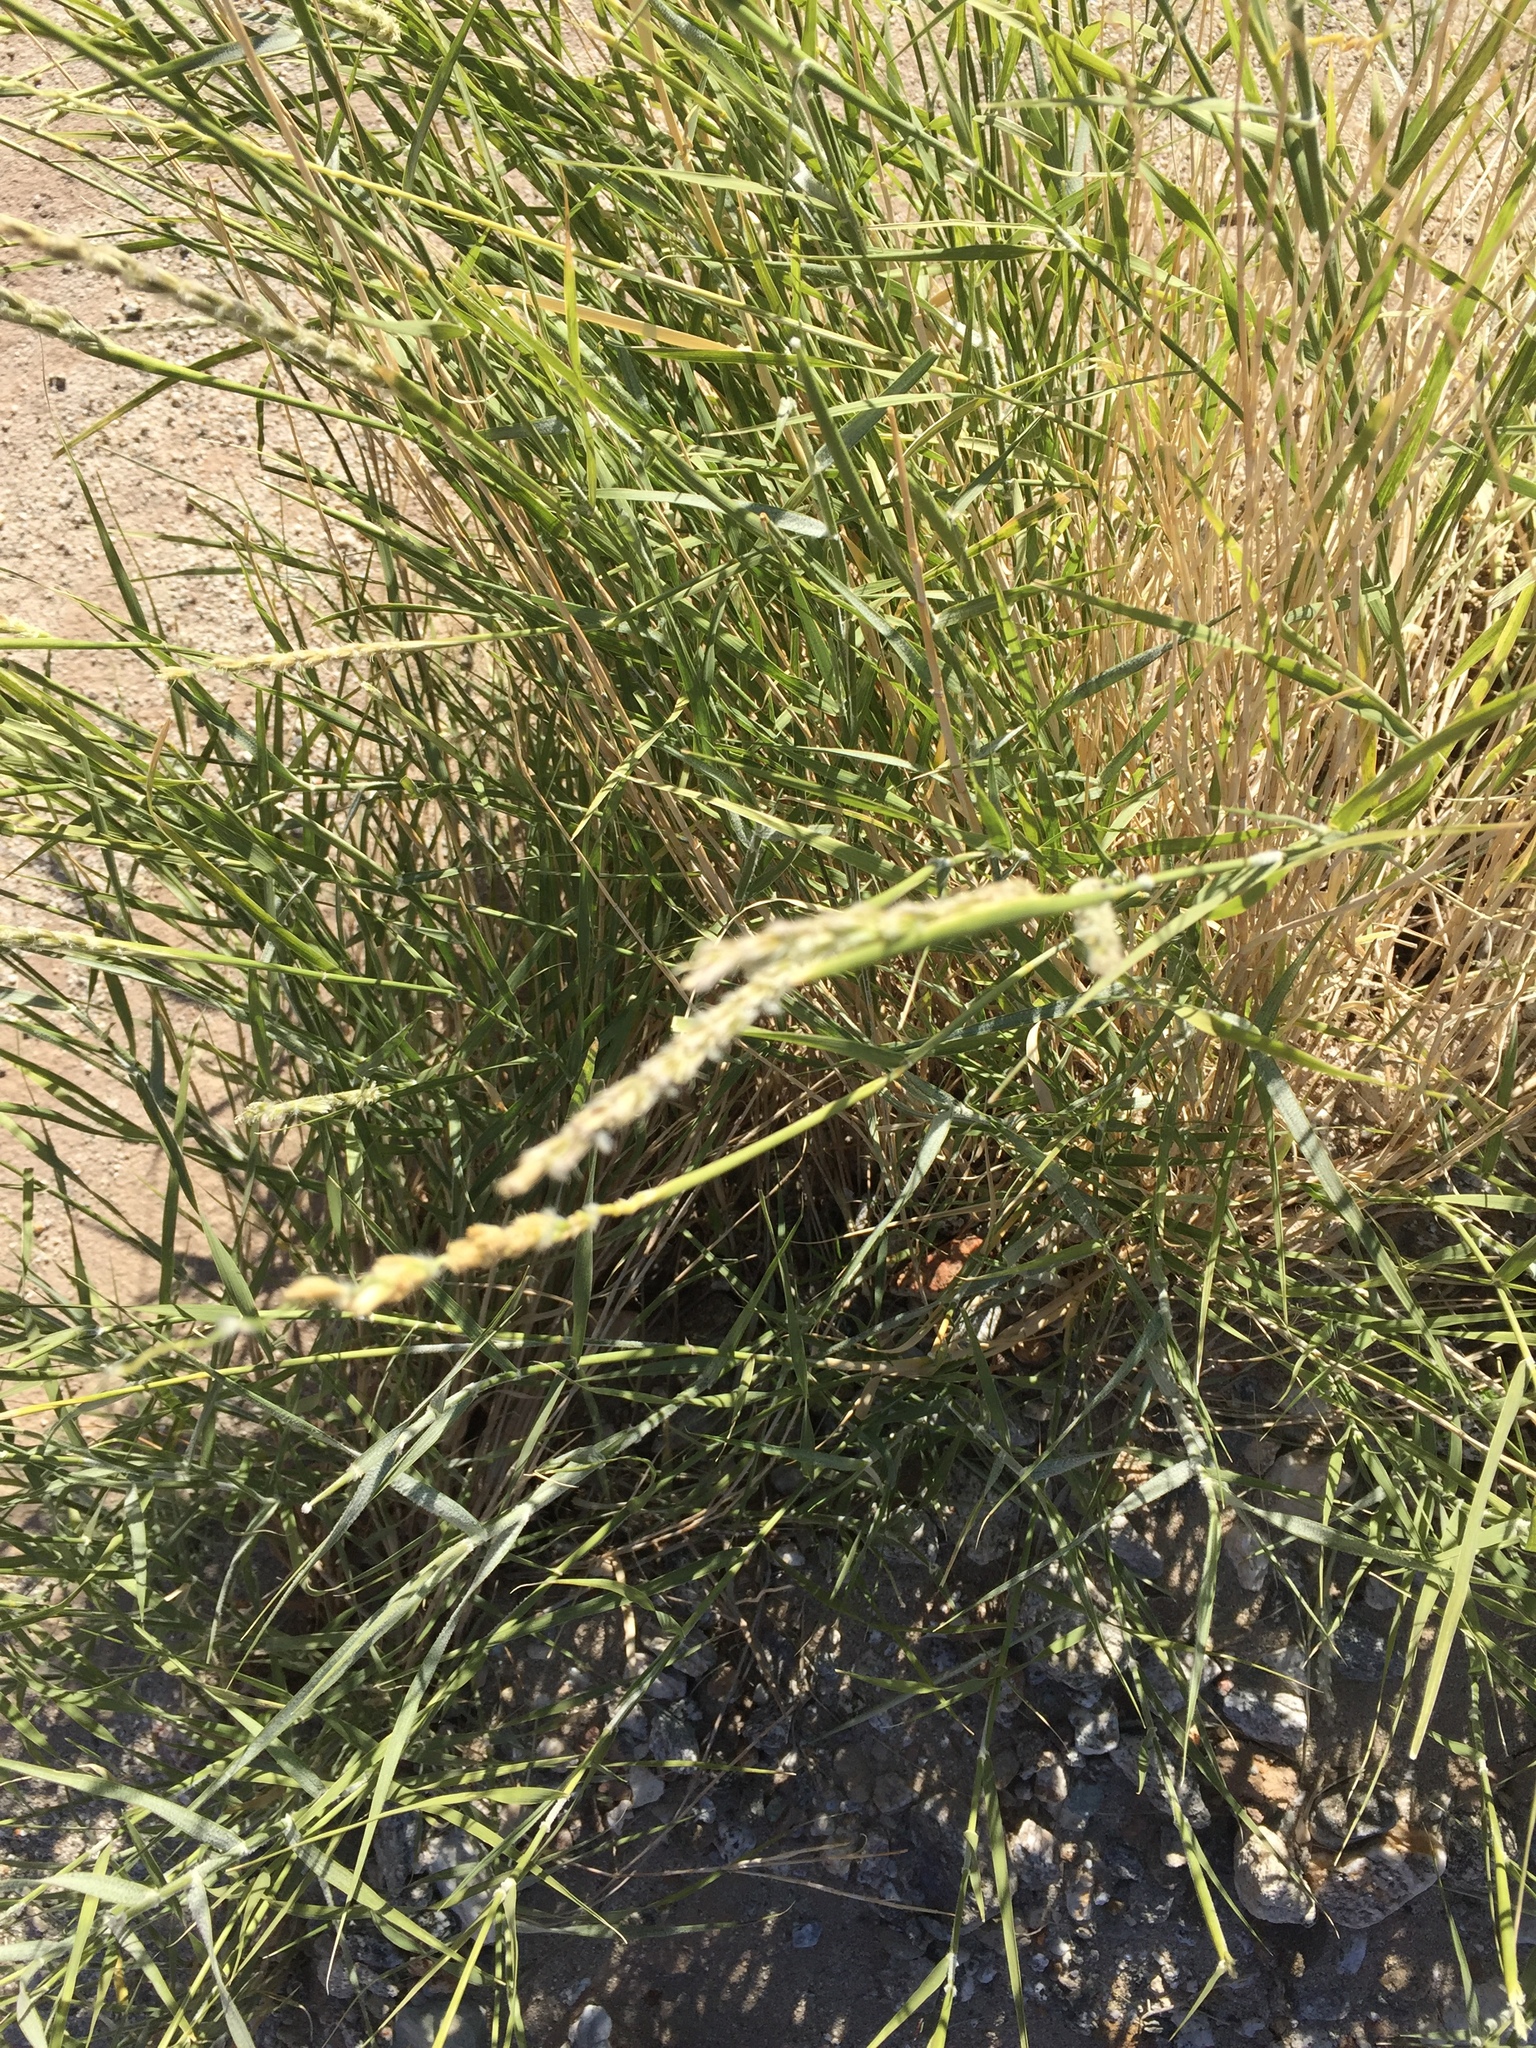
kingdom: Plantae
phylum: Tracheophyta
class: Liliopsida
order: Poales
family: Poaceae
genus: Hilaria
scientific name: Hilaria rigida
